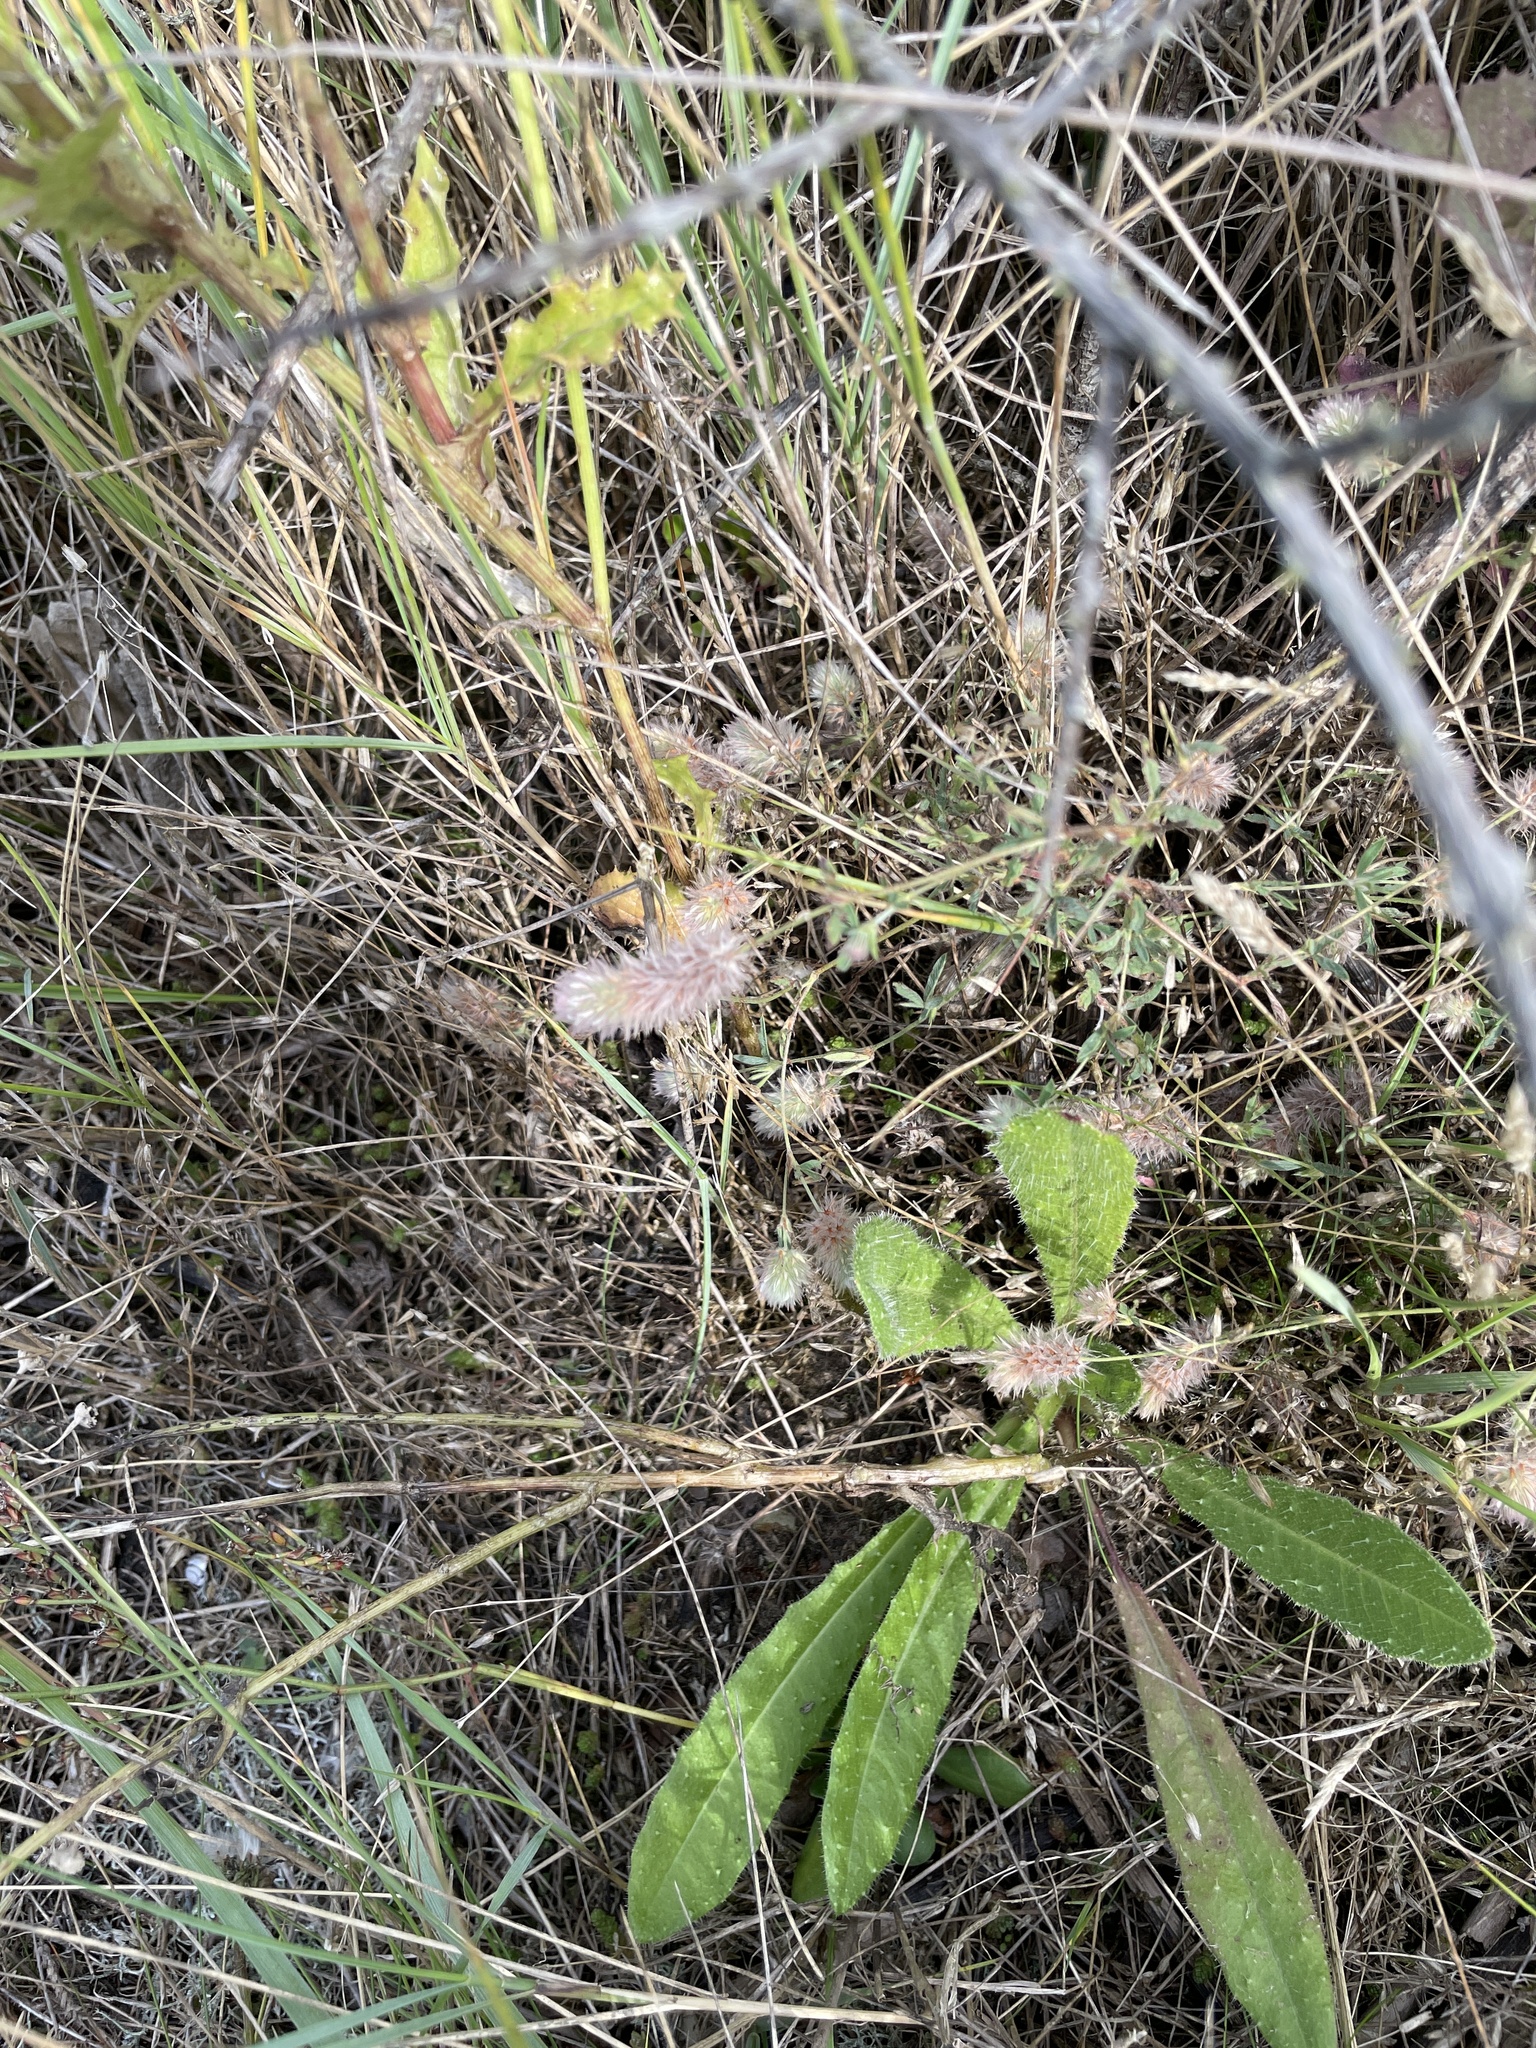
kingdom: Plantae
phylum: Tracheophyta
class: Magnoliopsida
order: Fabales
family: Fabaceae
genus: Trifolium
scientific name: Trifolium arvense
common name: Hare's-foot clover
